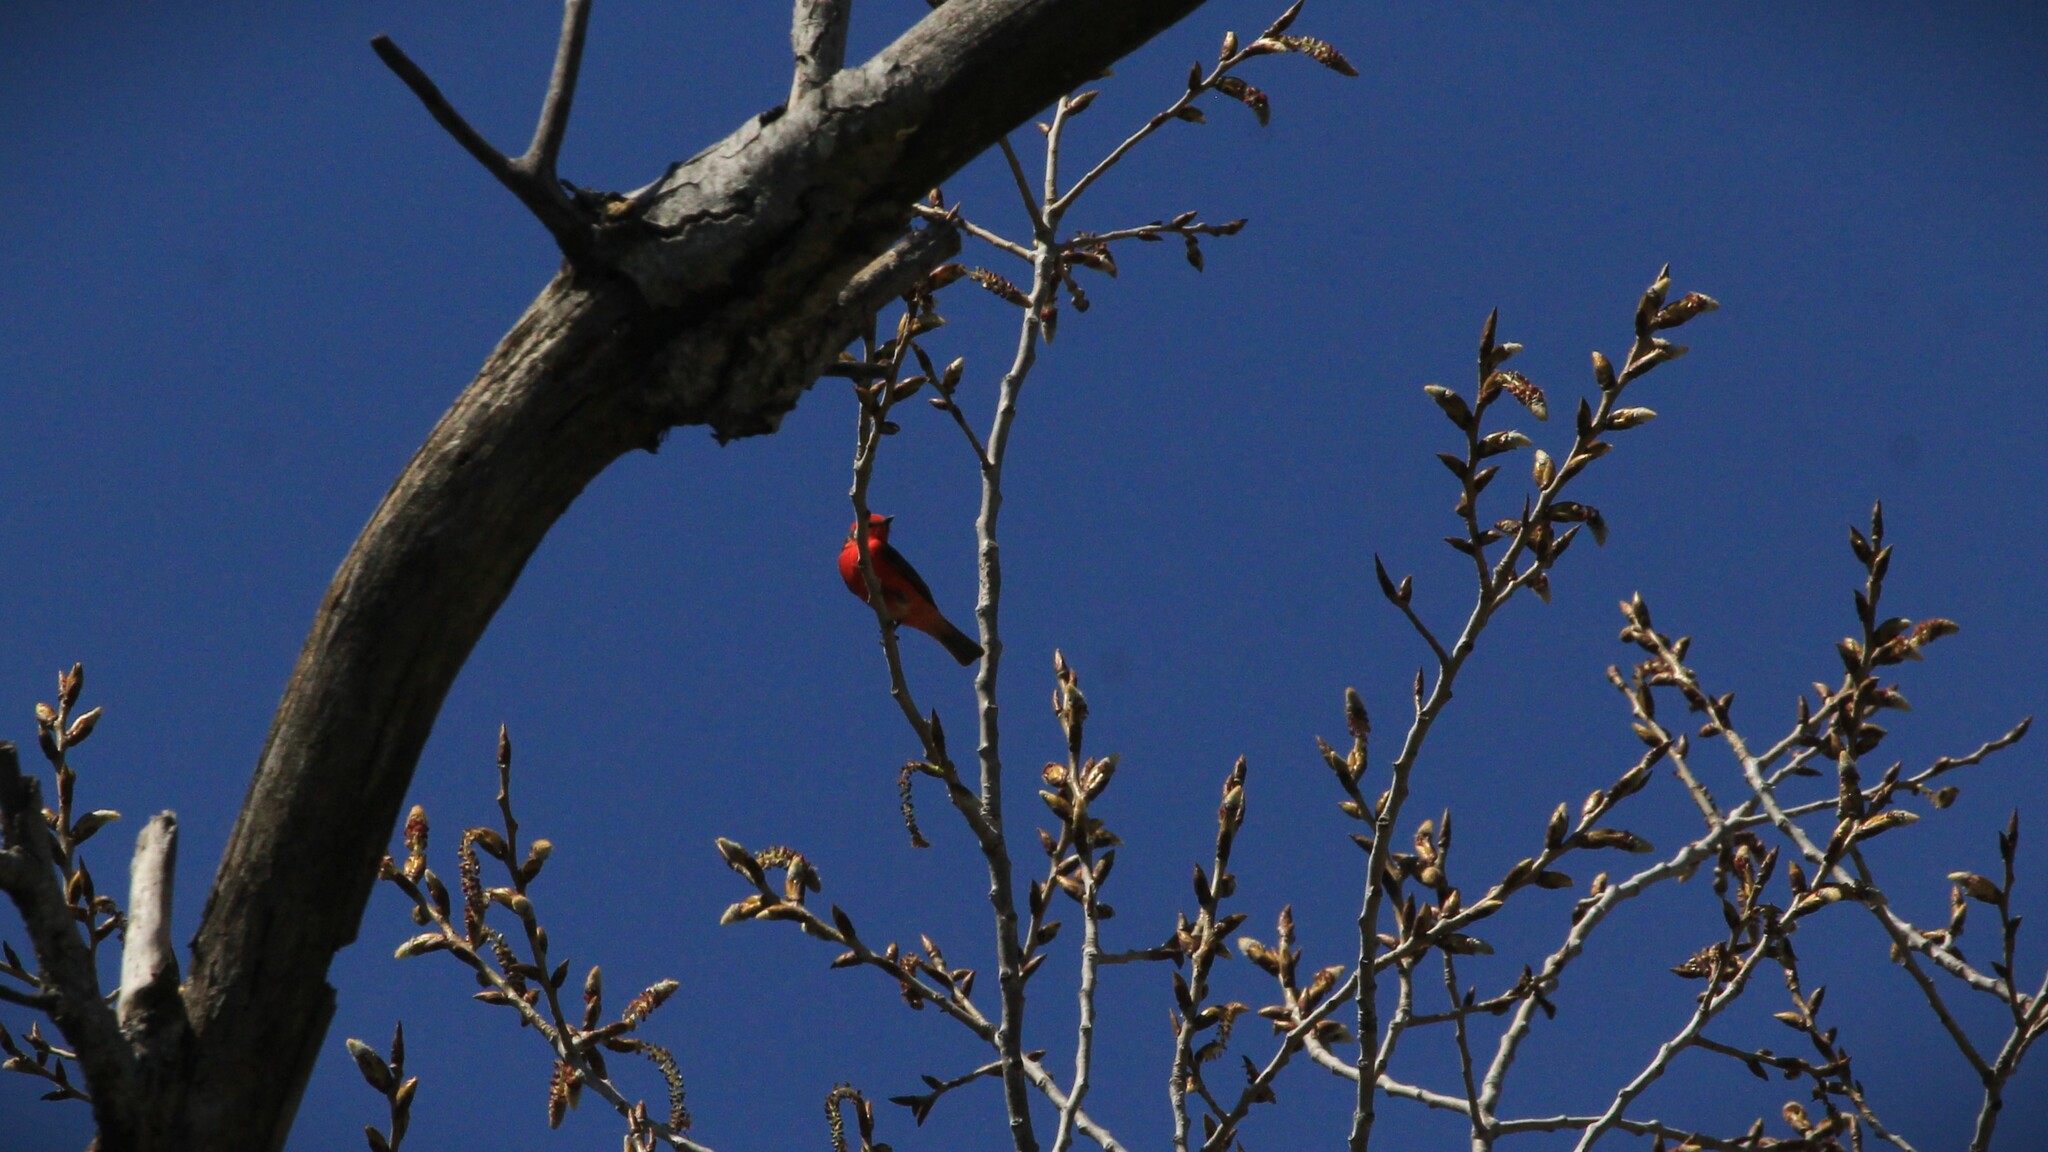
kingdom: Animalia
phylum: Chordata
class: Aves
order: Passeriformes
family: Tyrannidae
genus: Pyrocephalus
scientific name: Pyrocephalus rubinus
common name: Vermilion flycatcher
